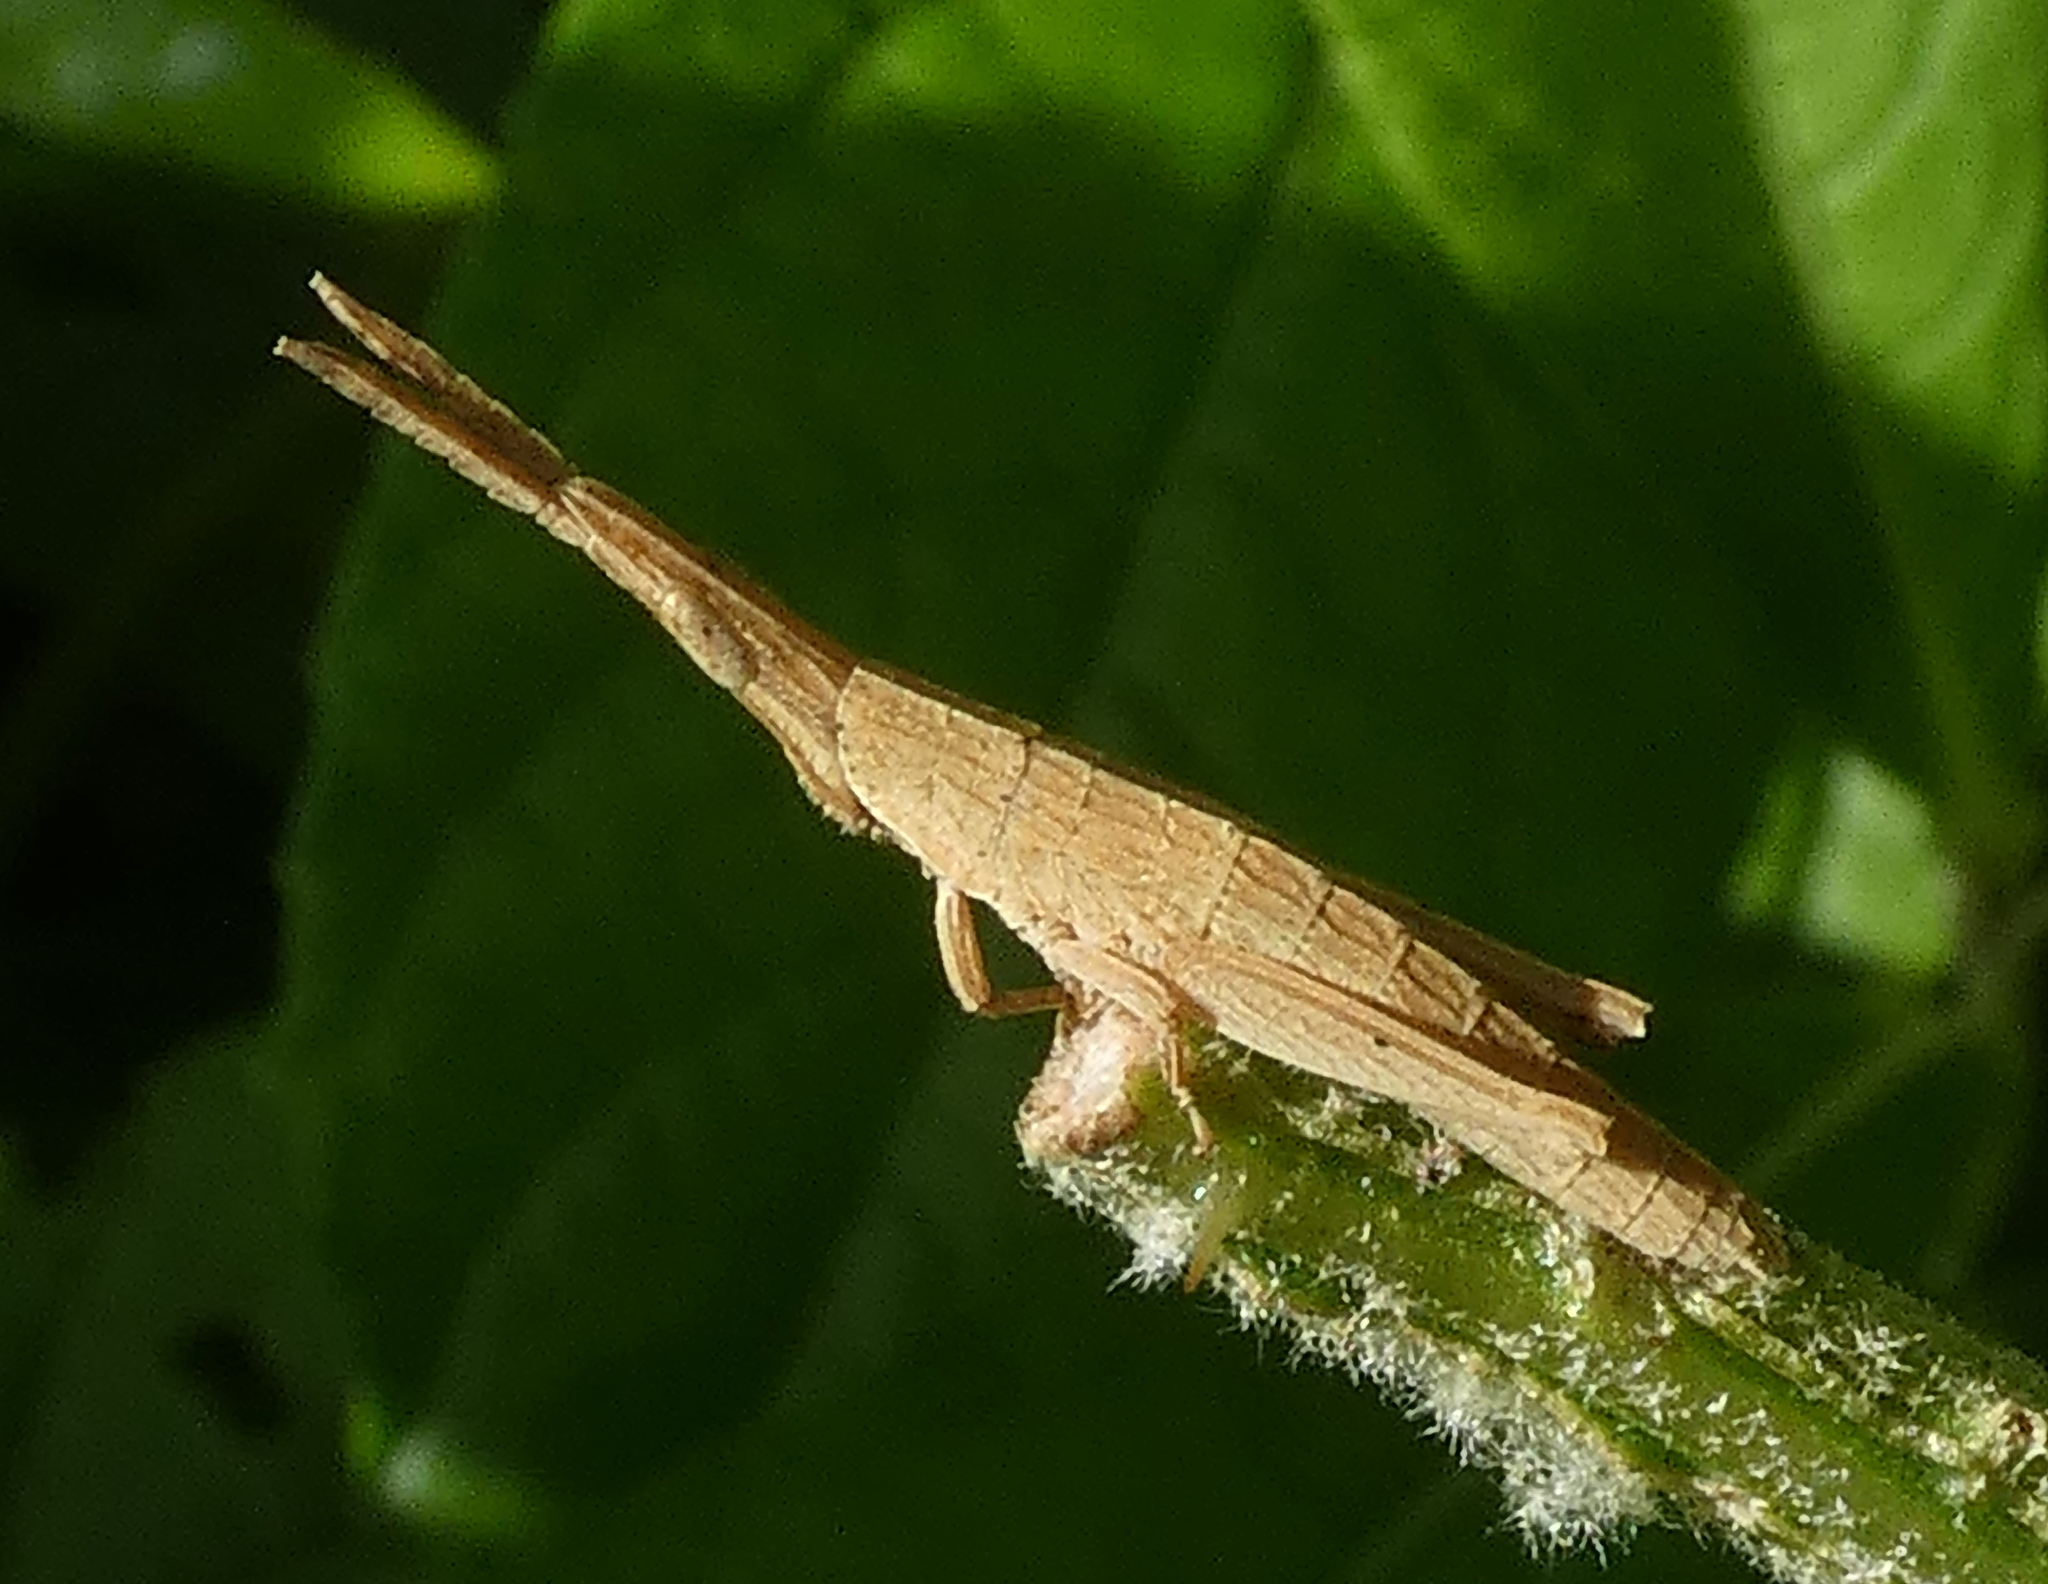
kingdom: Animalia
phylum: Arthropoda
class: Insecta
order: Orthoptera
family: Pyrgomorphidae
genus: Algete
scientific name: Algete brunneri
